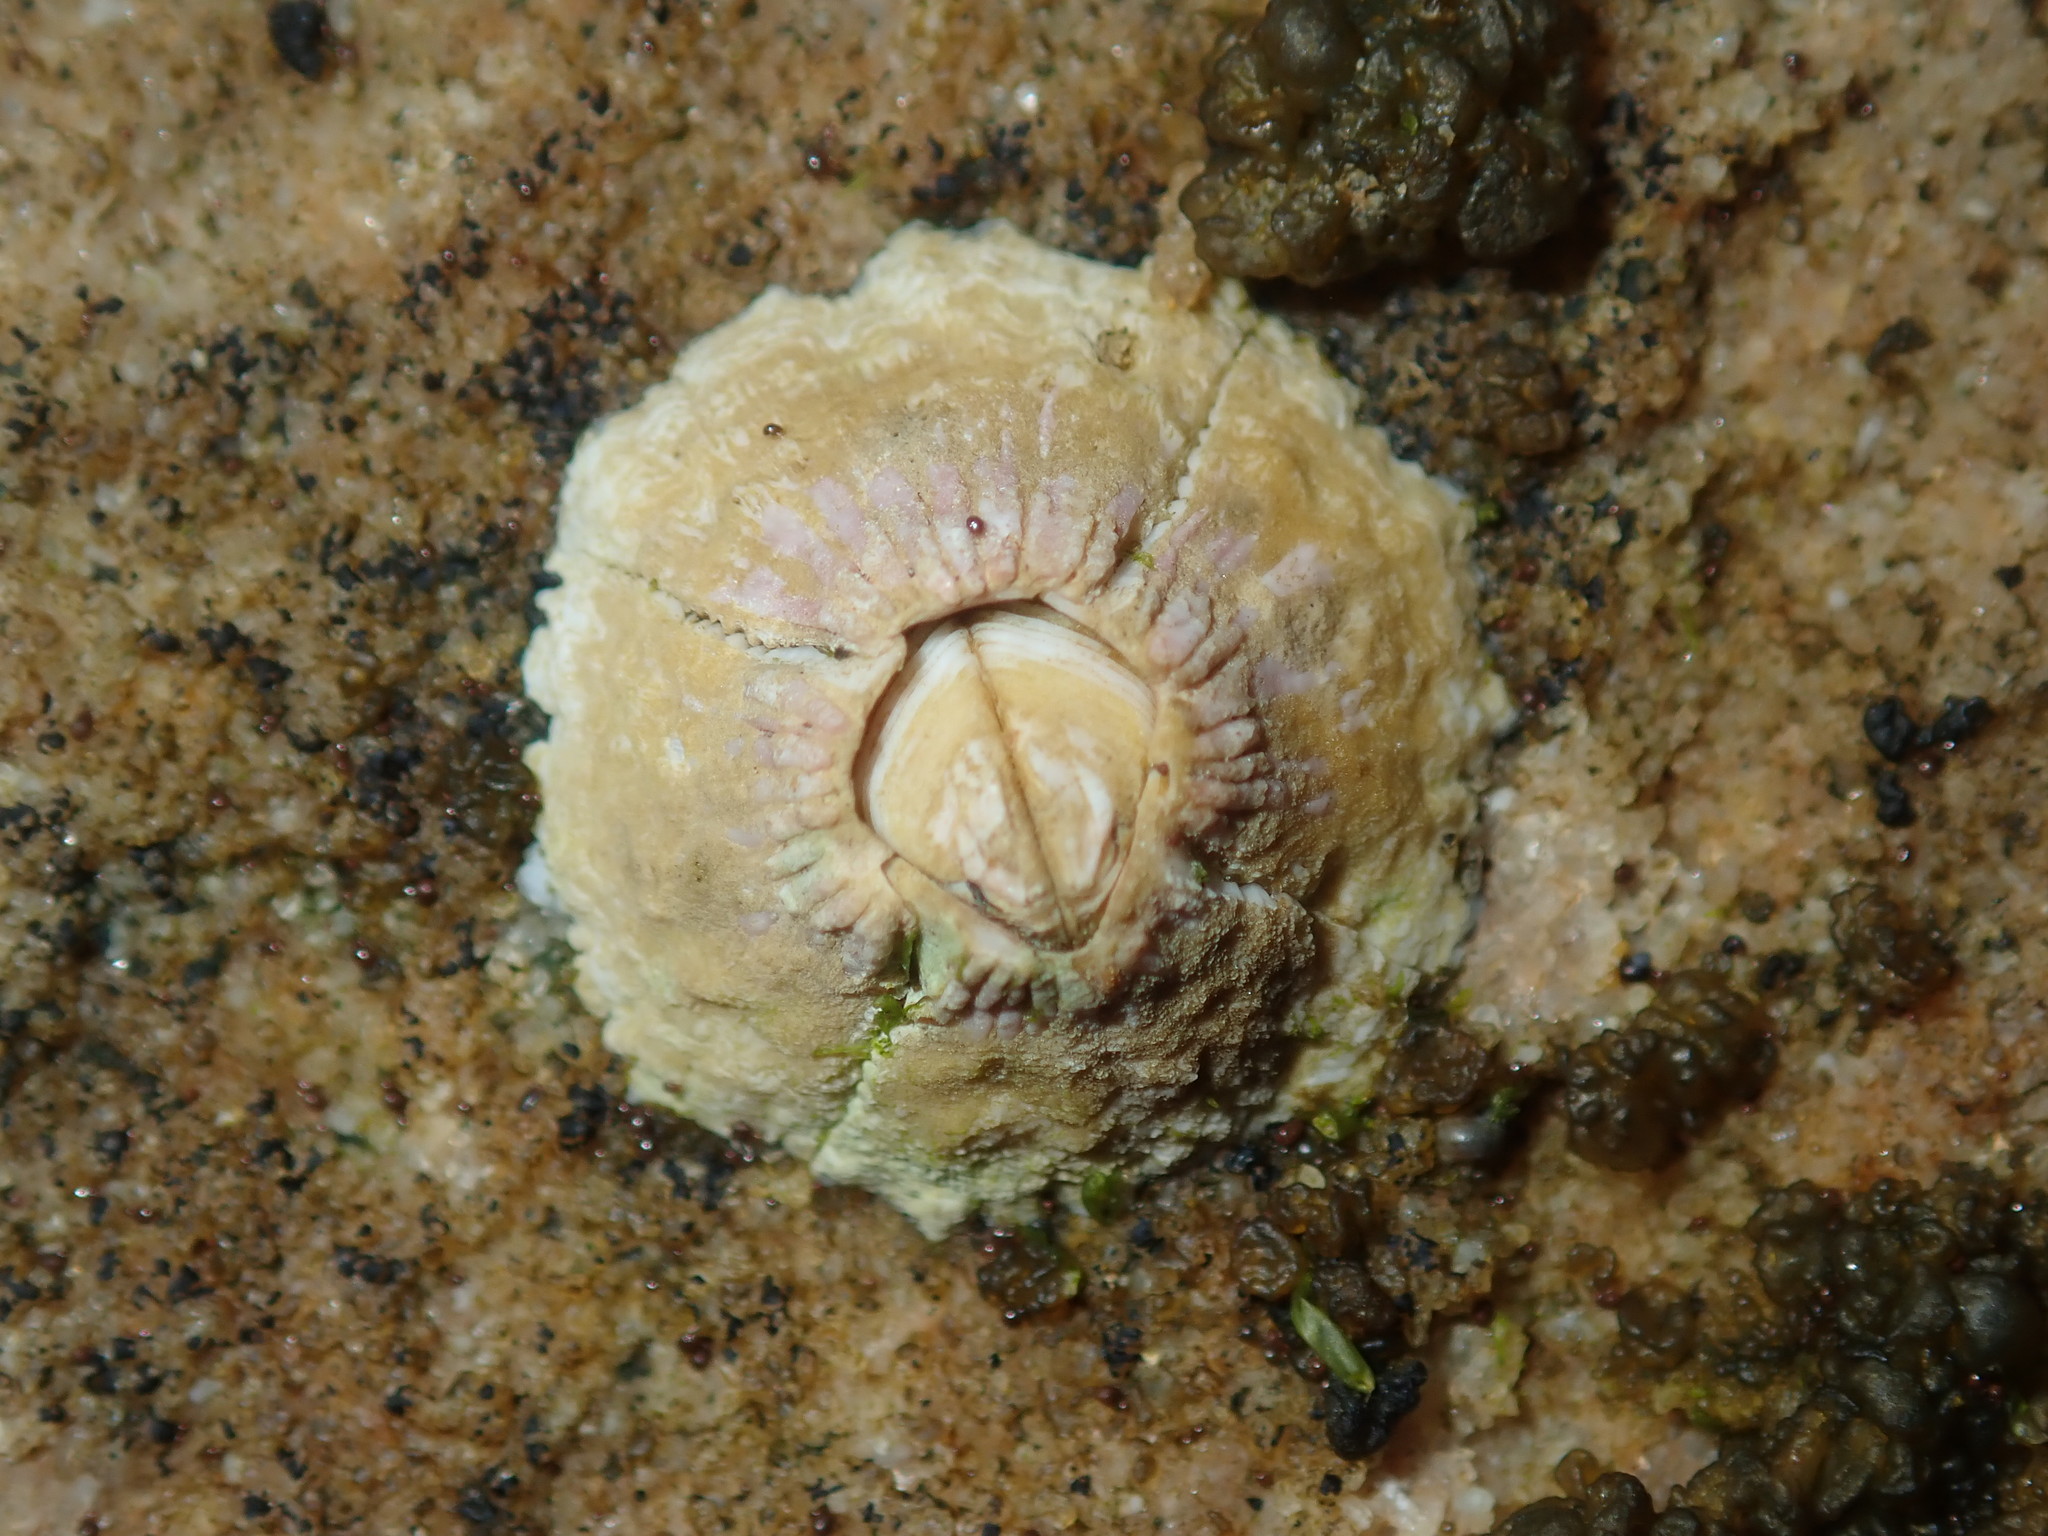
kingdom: Animalia
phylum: Arthropoda
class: Maxillopoda
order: Sessilia
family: Tetraclitidae
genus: Tesseropora
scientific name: Tesseropora rosea
